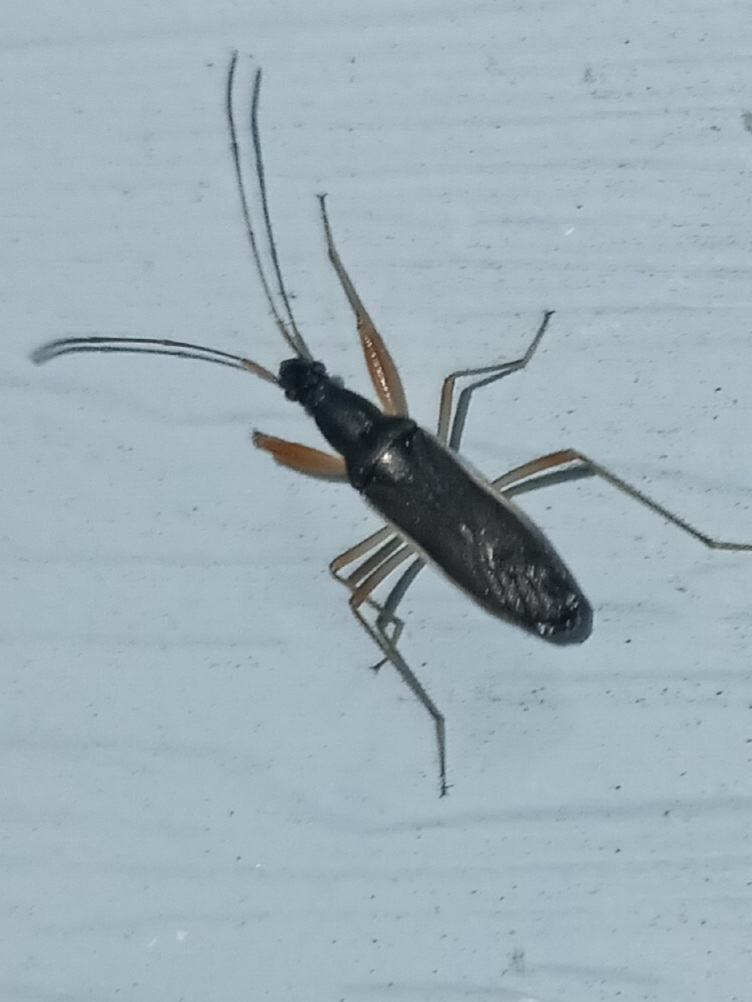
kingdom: Animalia
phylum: Arthropoda
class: Insecta
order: Hemiptera
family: Rhyparochromidae
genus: Cnemodus
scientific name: Cnemodus mavortius
